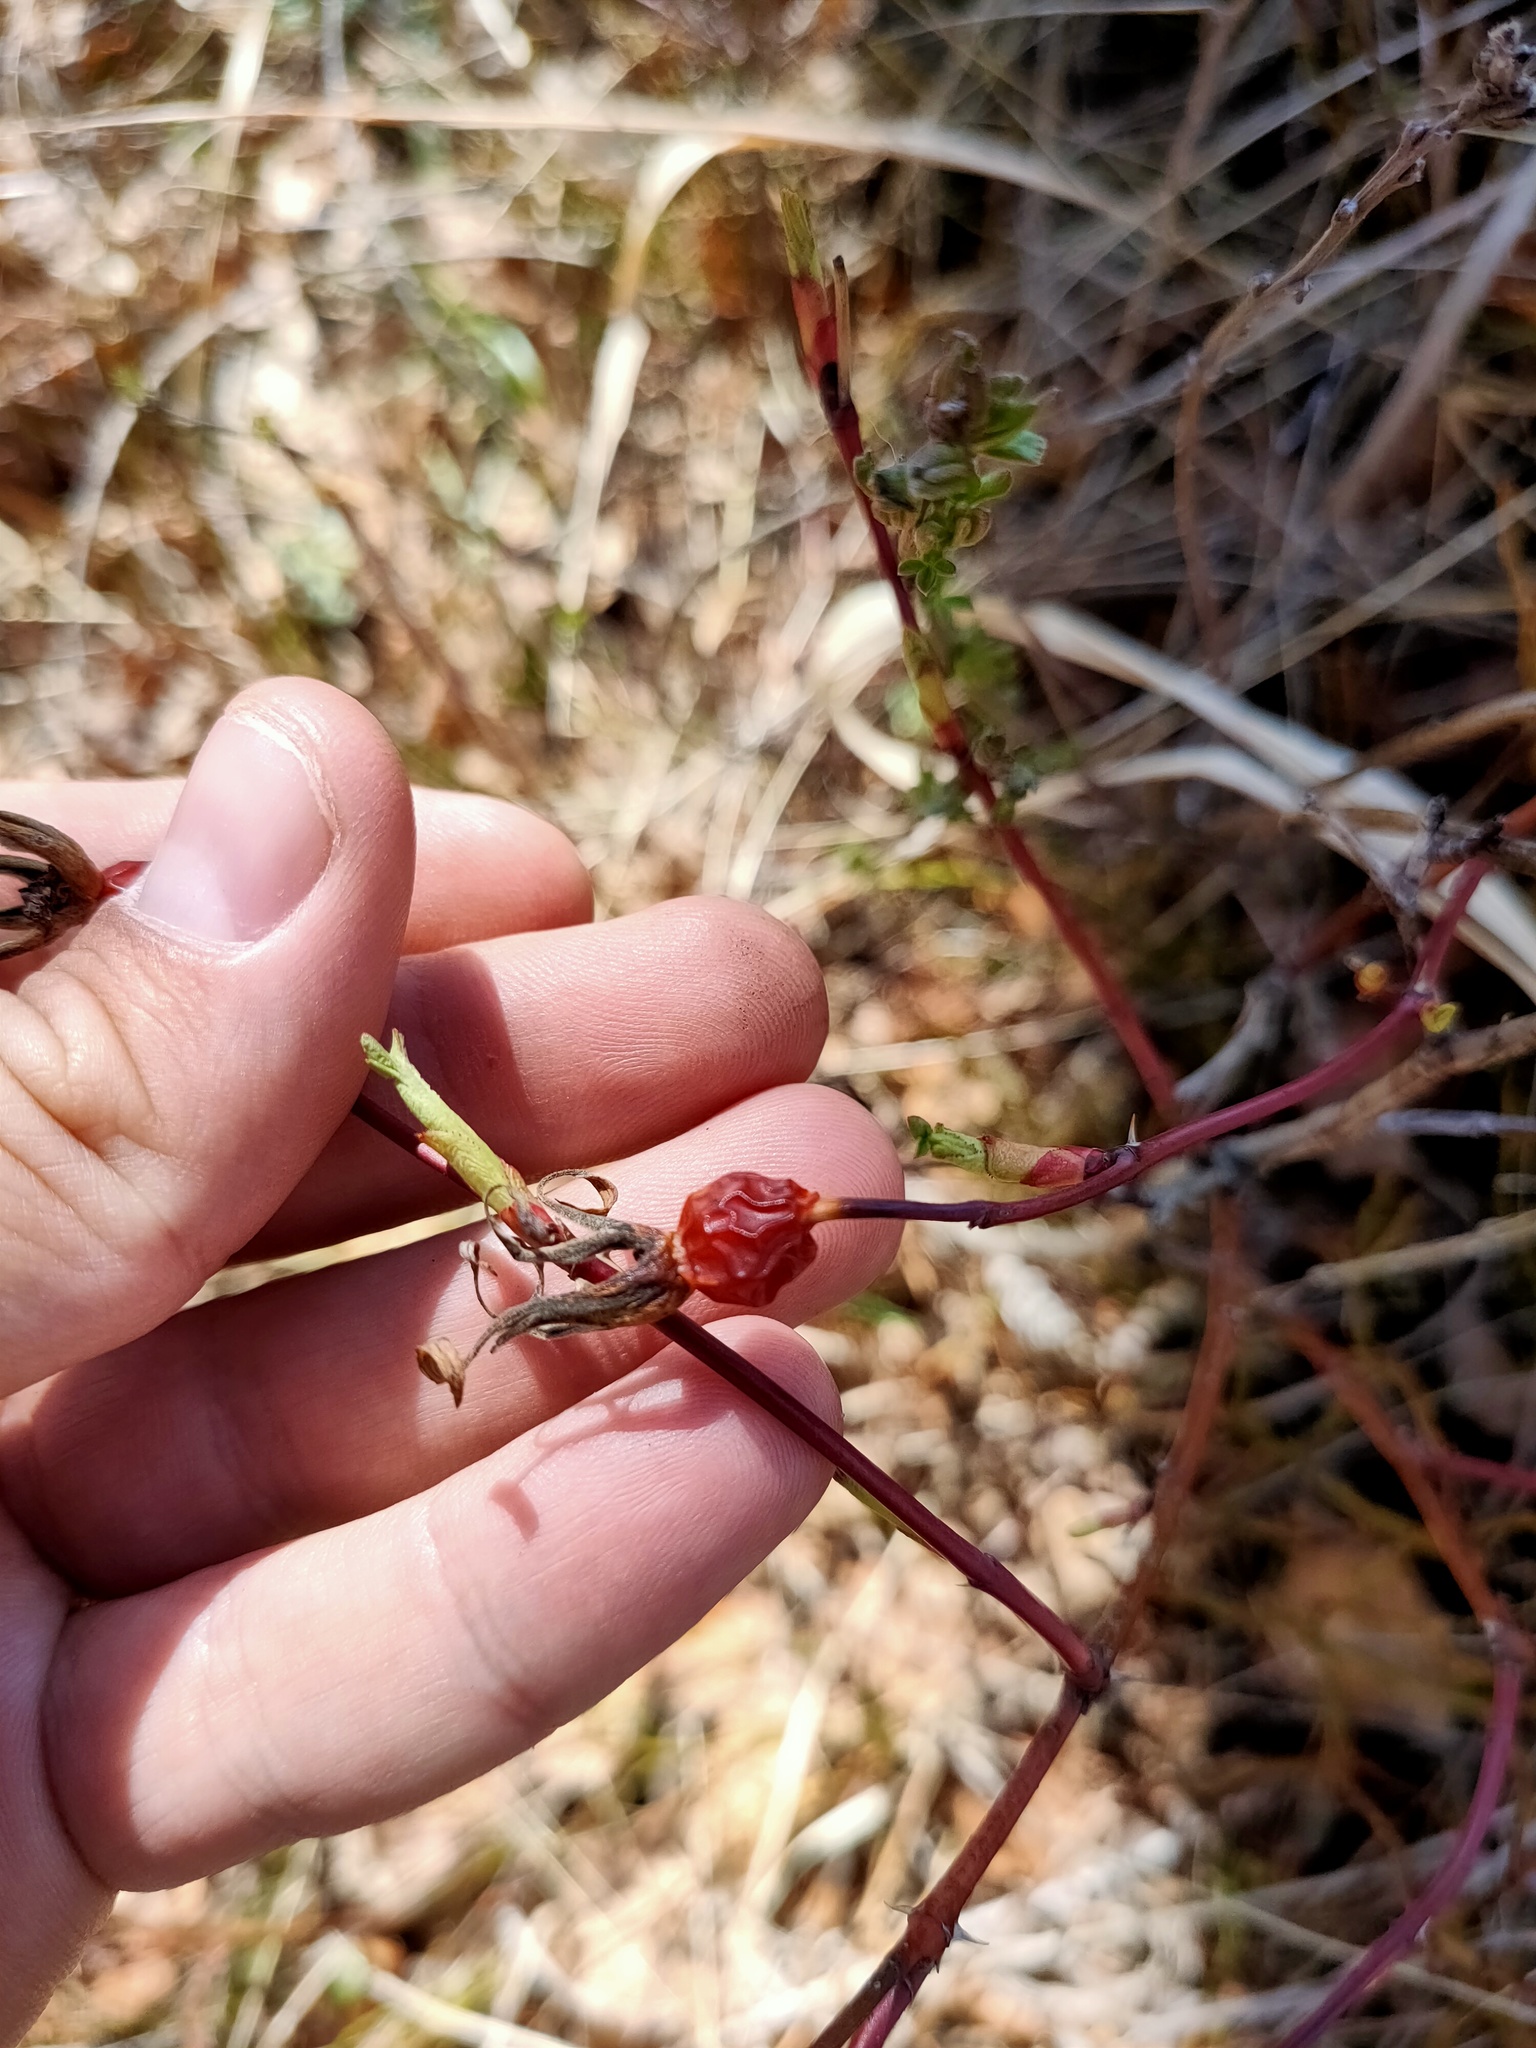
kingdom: Plantae
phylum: Tracheophyta
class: Magnoliopsida
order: Rosales
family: Rosaceae
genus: Rosa
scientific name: Rosa
